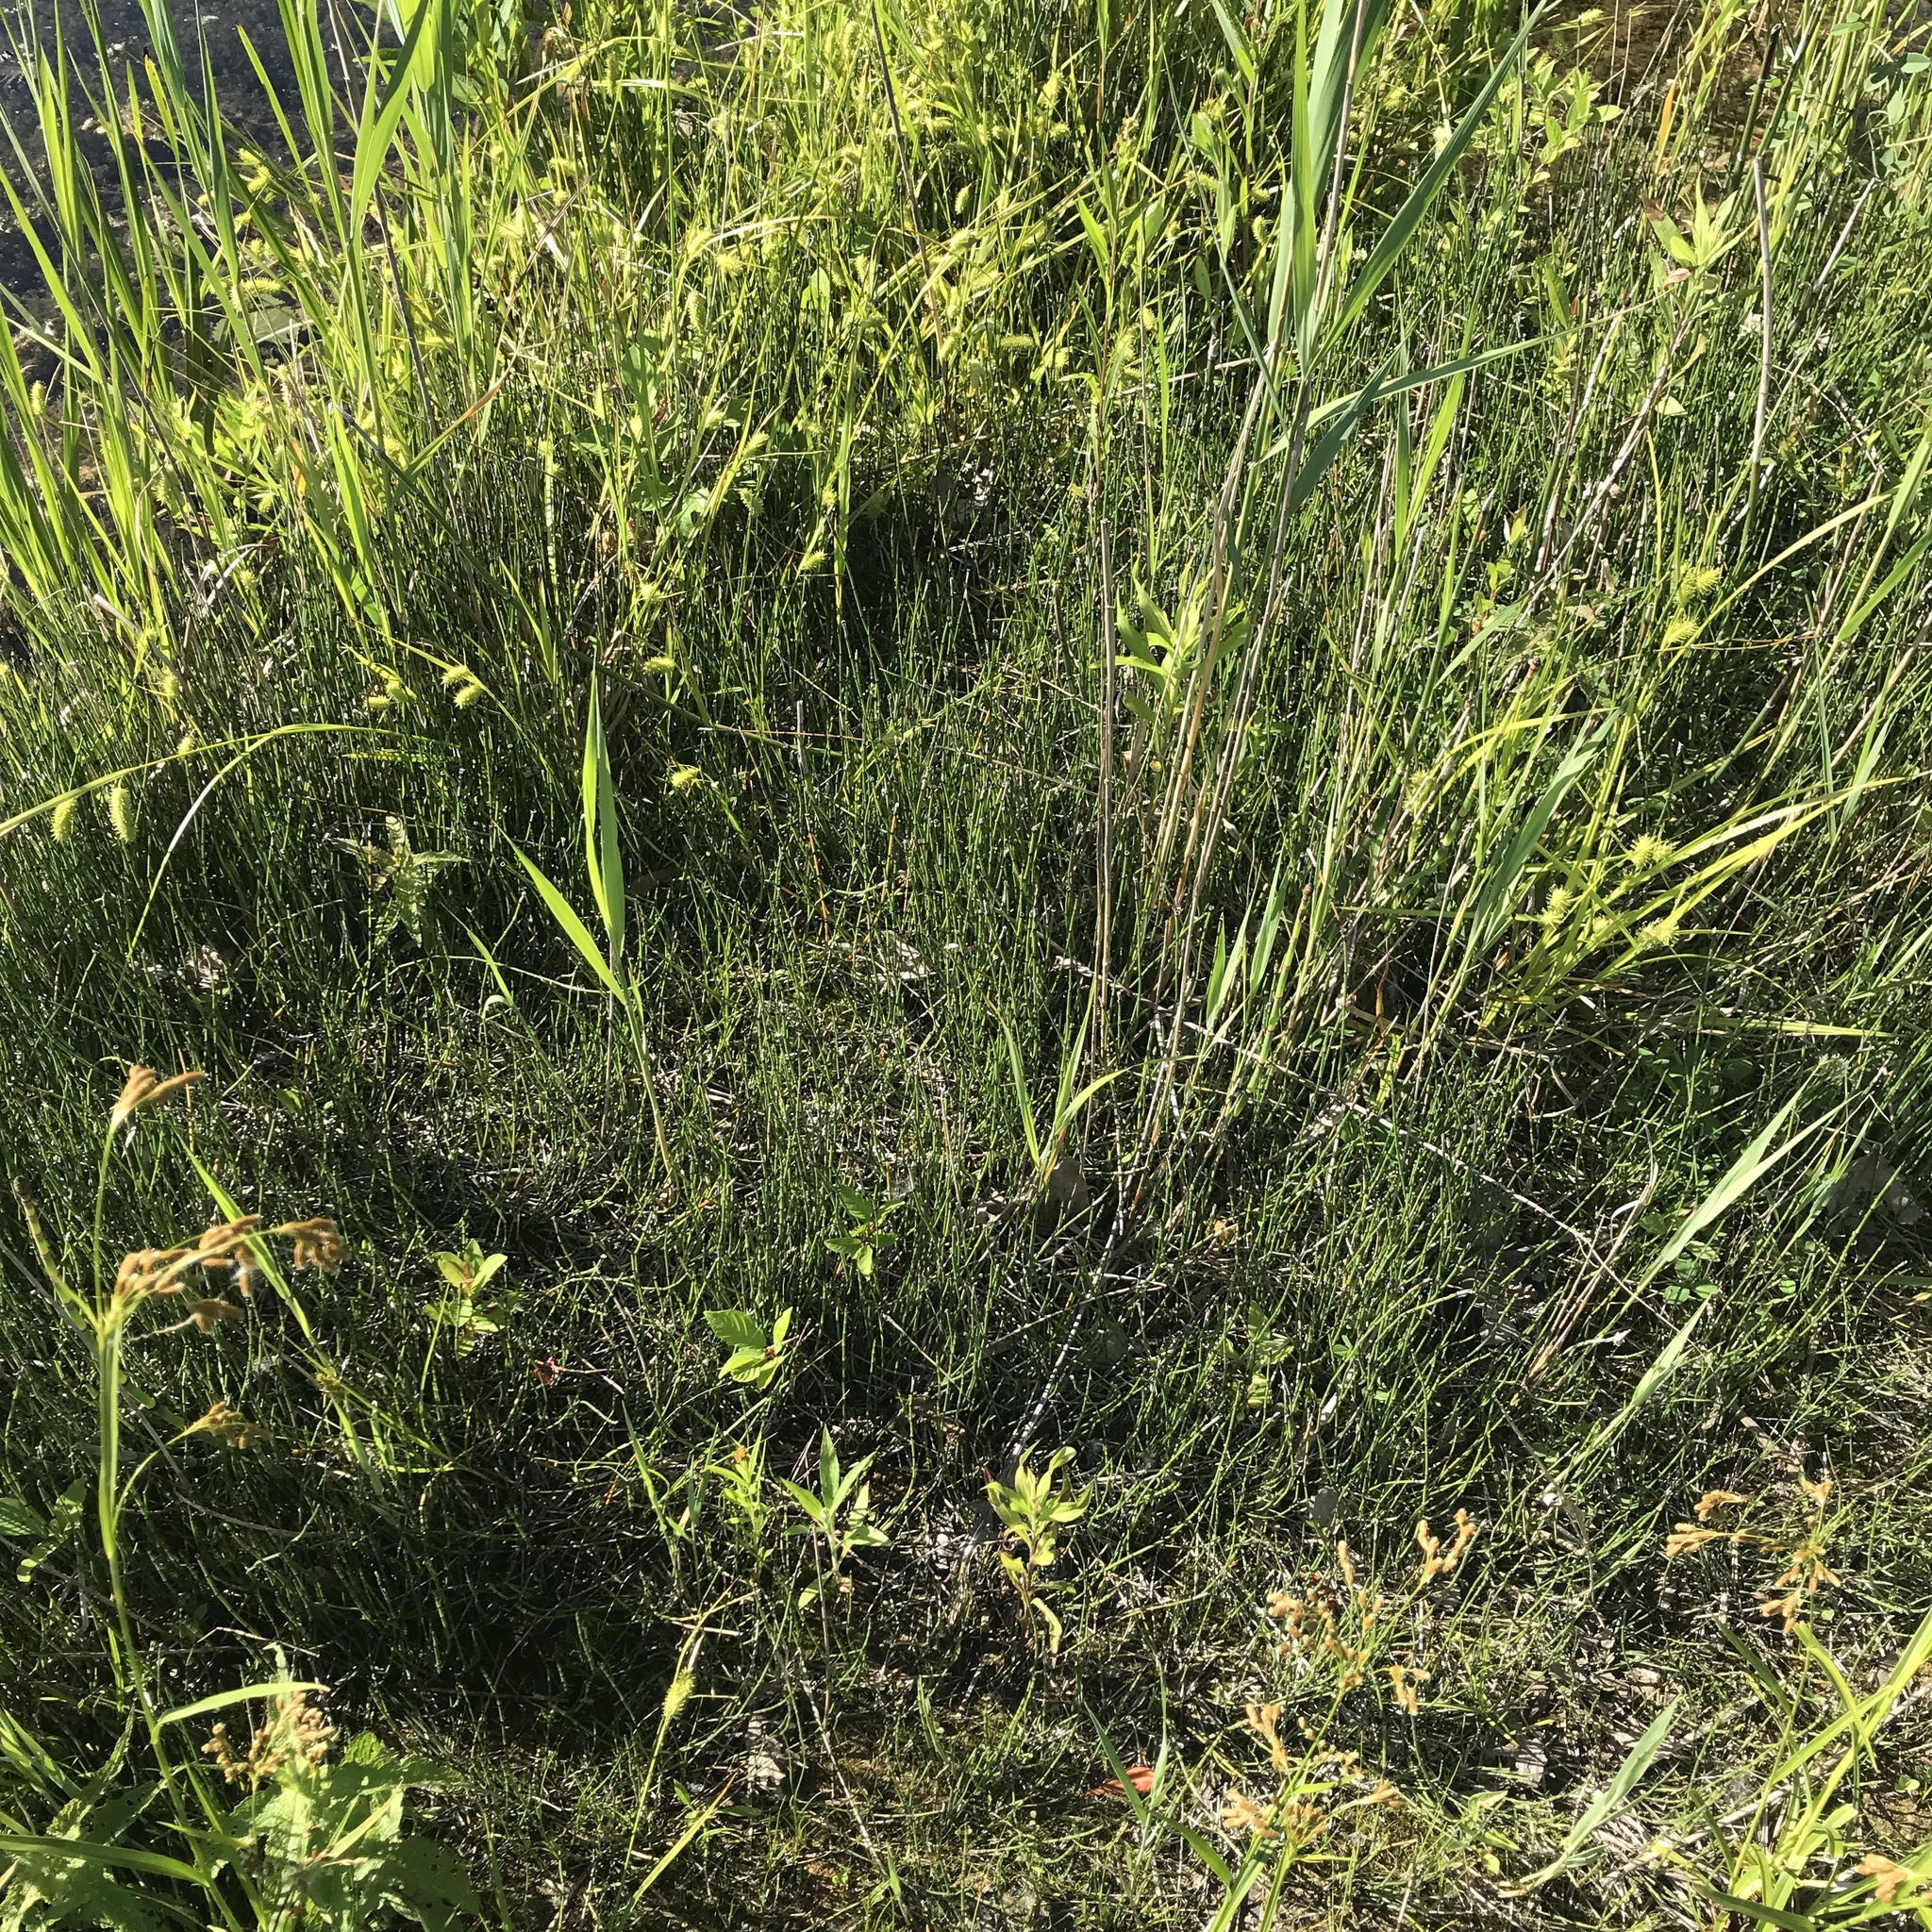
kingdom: Plantae
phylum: Tracheophyta
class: Polypodiopsida
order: Equisetales
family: Equisetaceae
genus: Equisetum
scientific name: Equisetum variegatum
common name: Variegated horsetail
